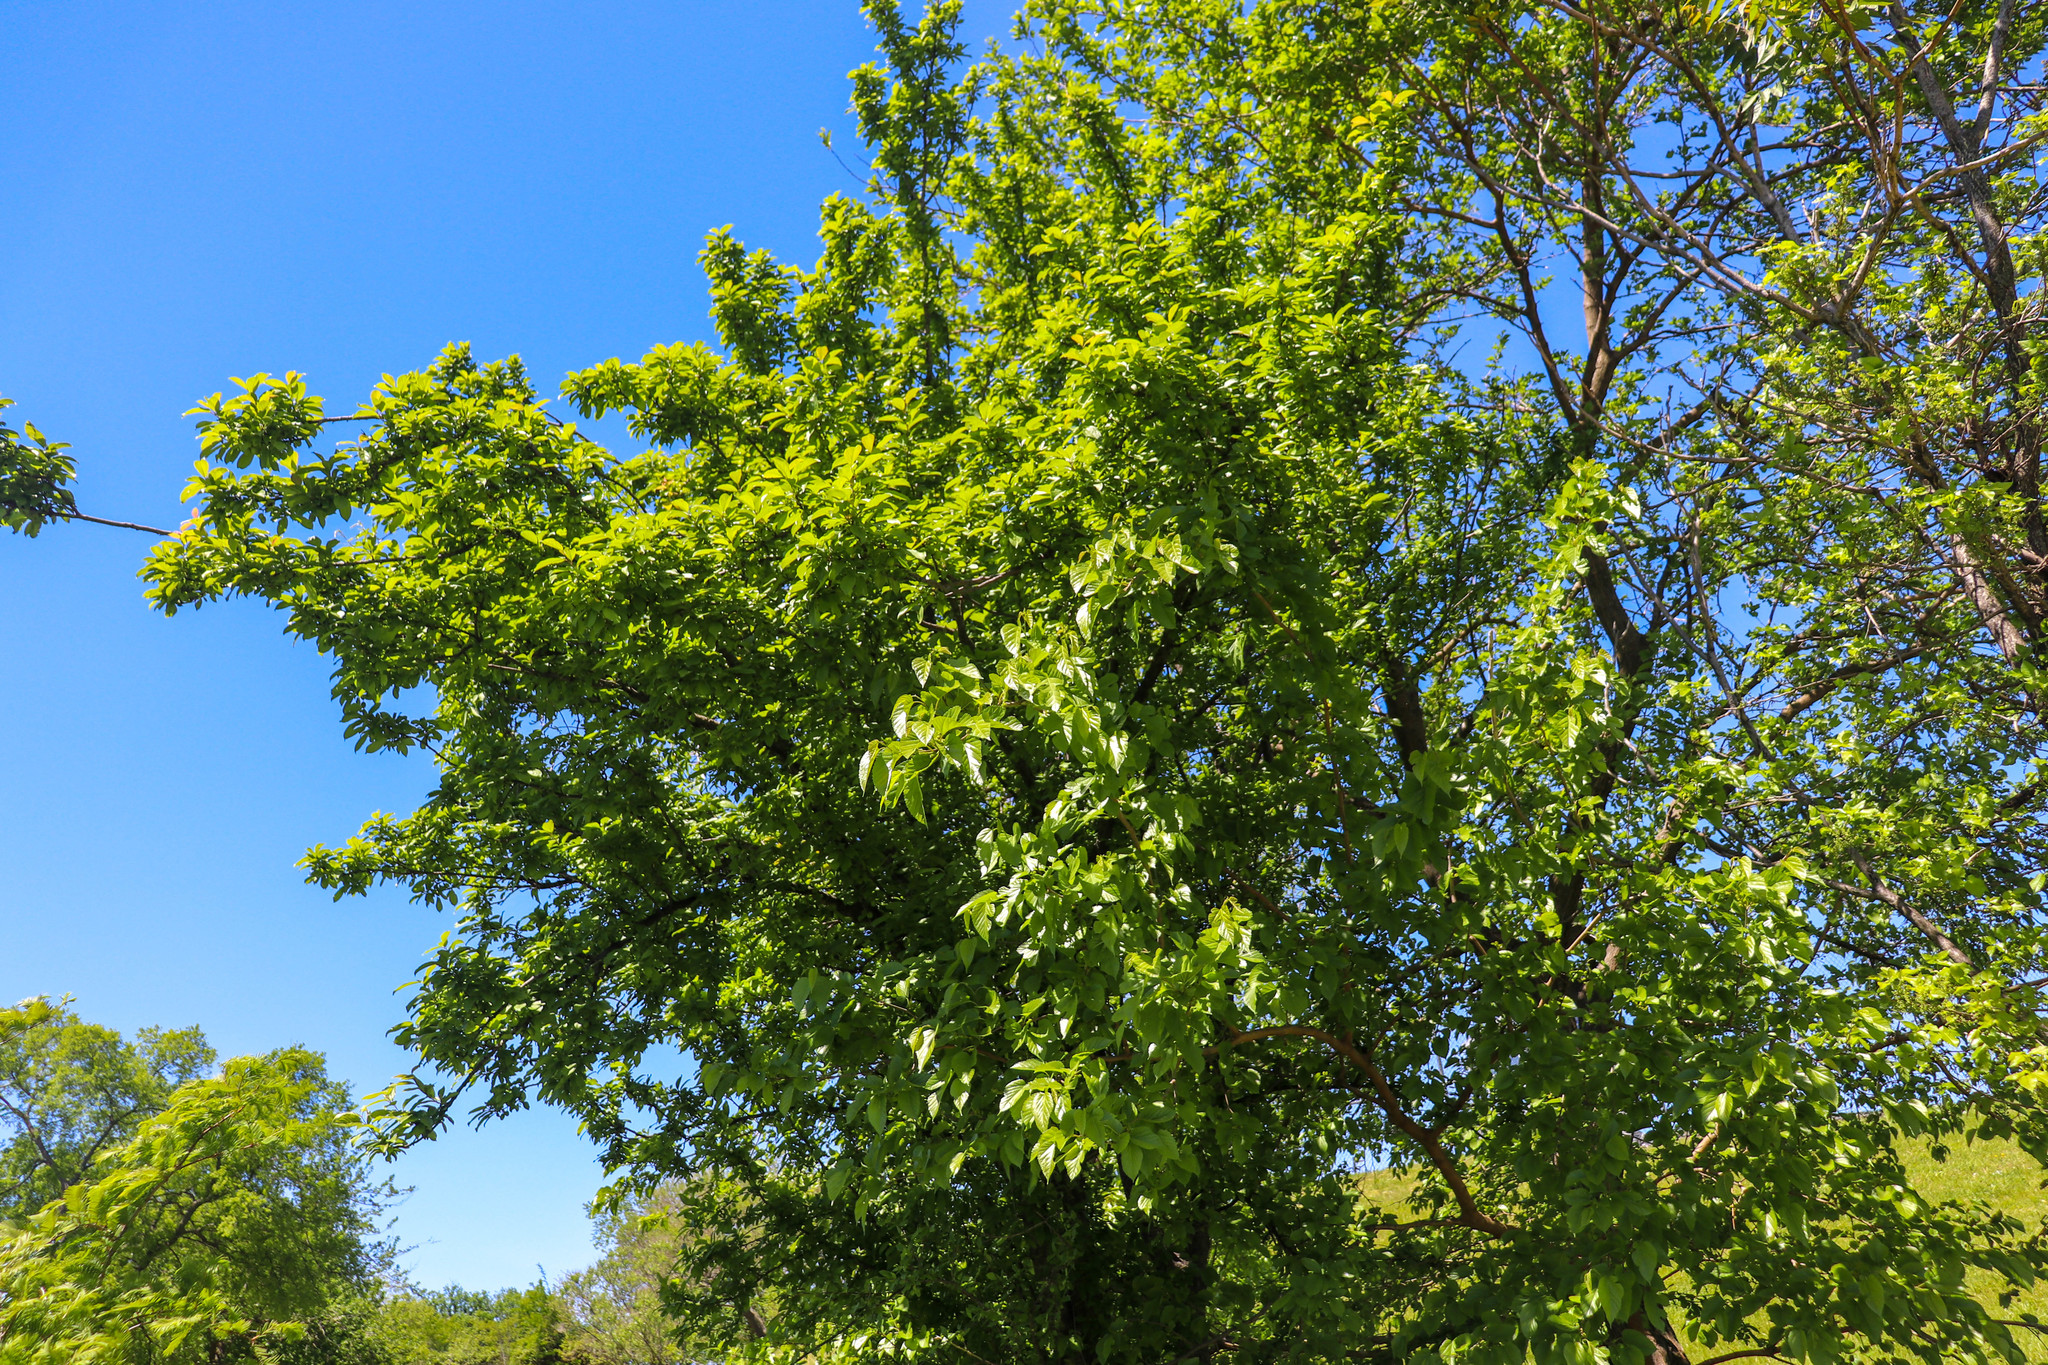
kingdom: Plantae
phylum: Tracheophyta
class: Magnoliopsida
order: Rosales
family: Moraceae
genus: Morus
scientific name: Morus alba
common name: White mulberry
